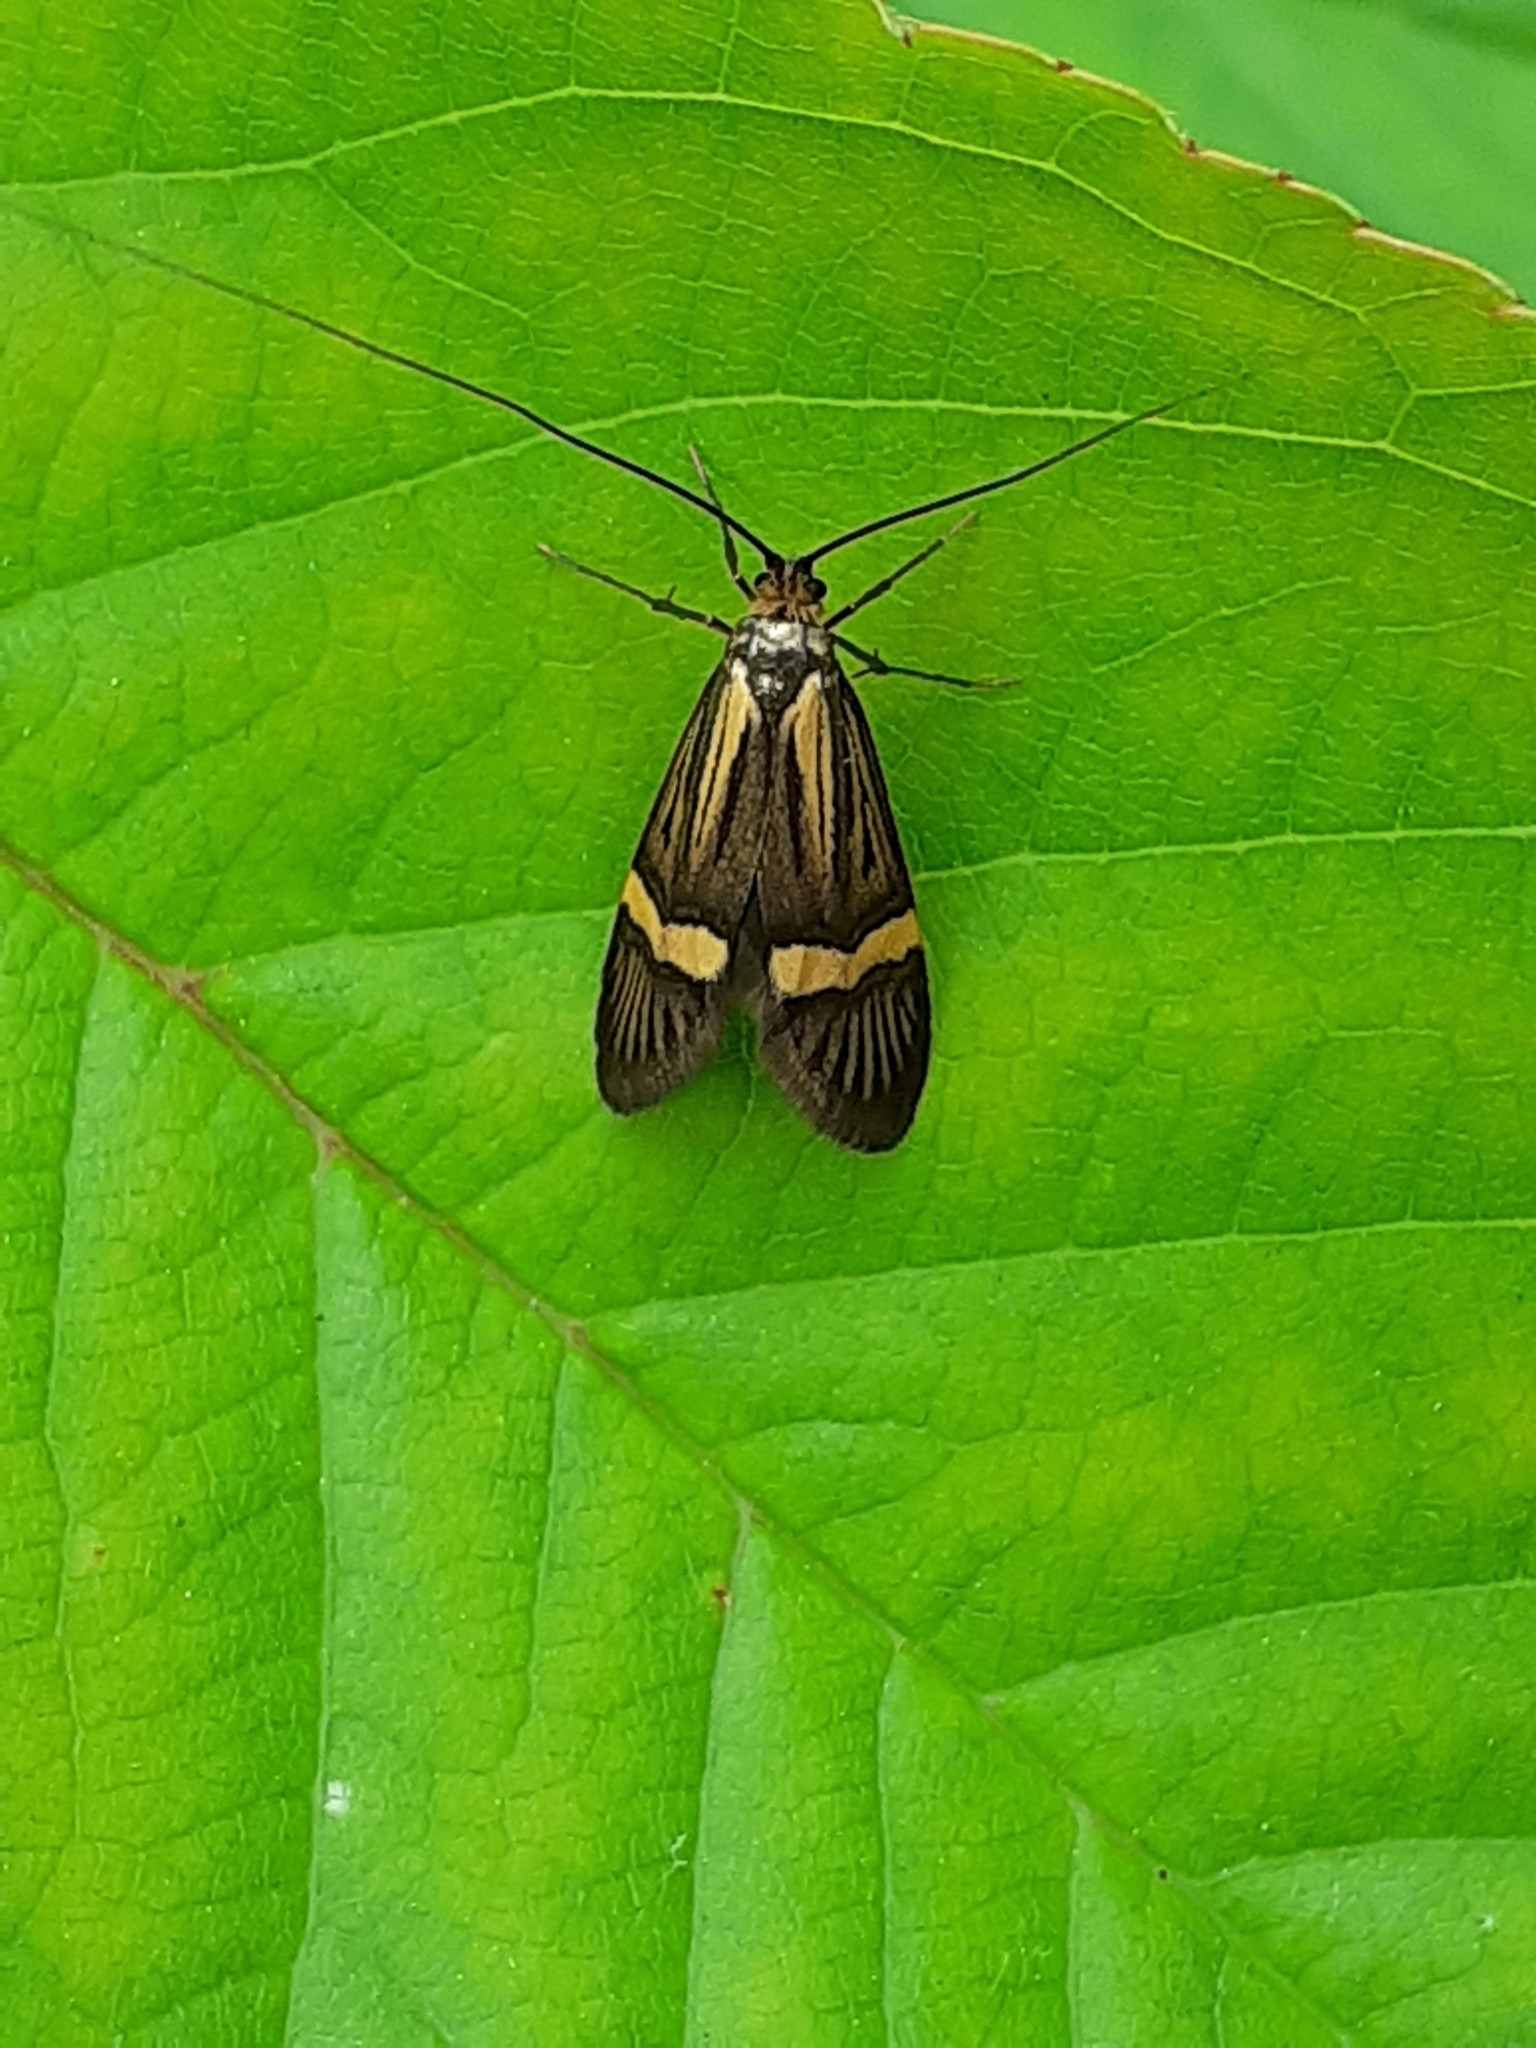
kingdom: Animalia
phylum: Arthropoda
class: Insecta
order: Lepidoptera
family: Adelidae
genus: Nemophora
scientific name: Nemophora degeerella
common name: Yellow-barred long-horn
